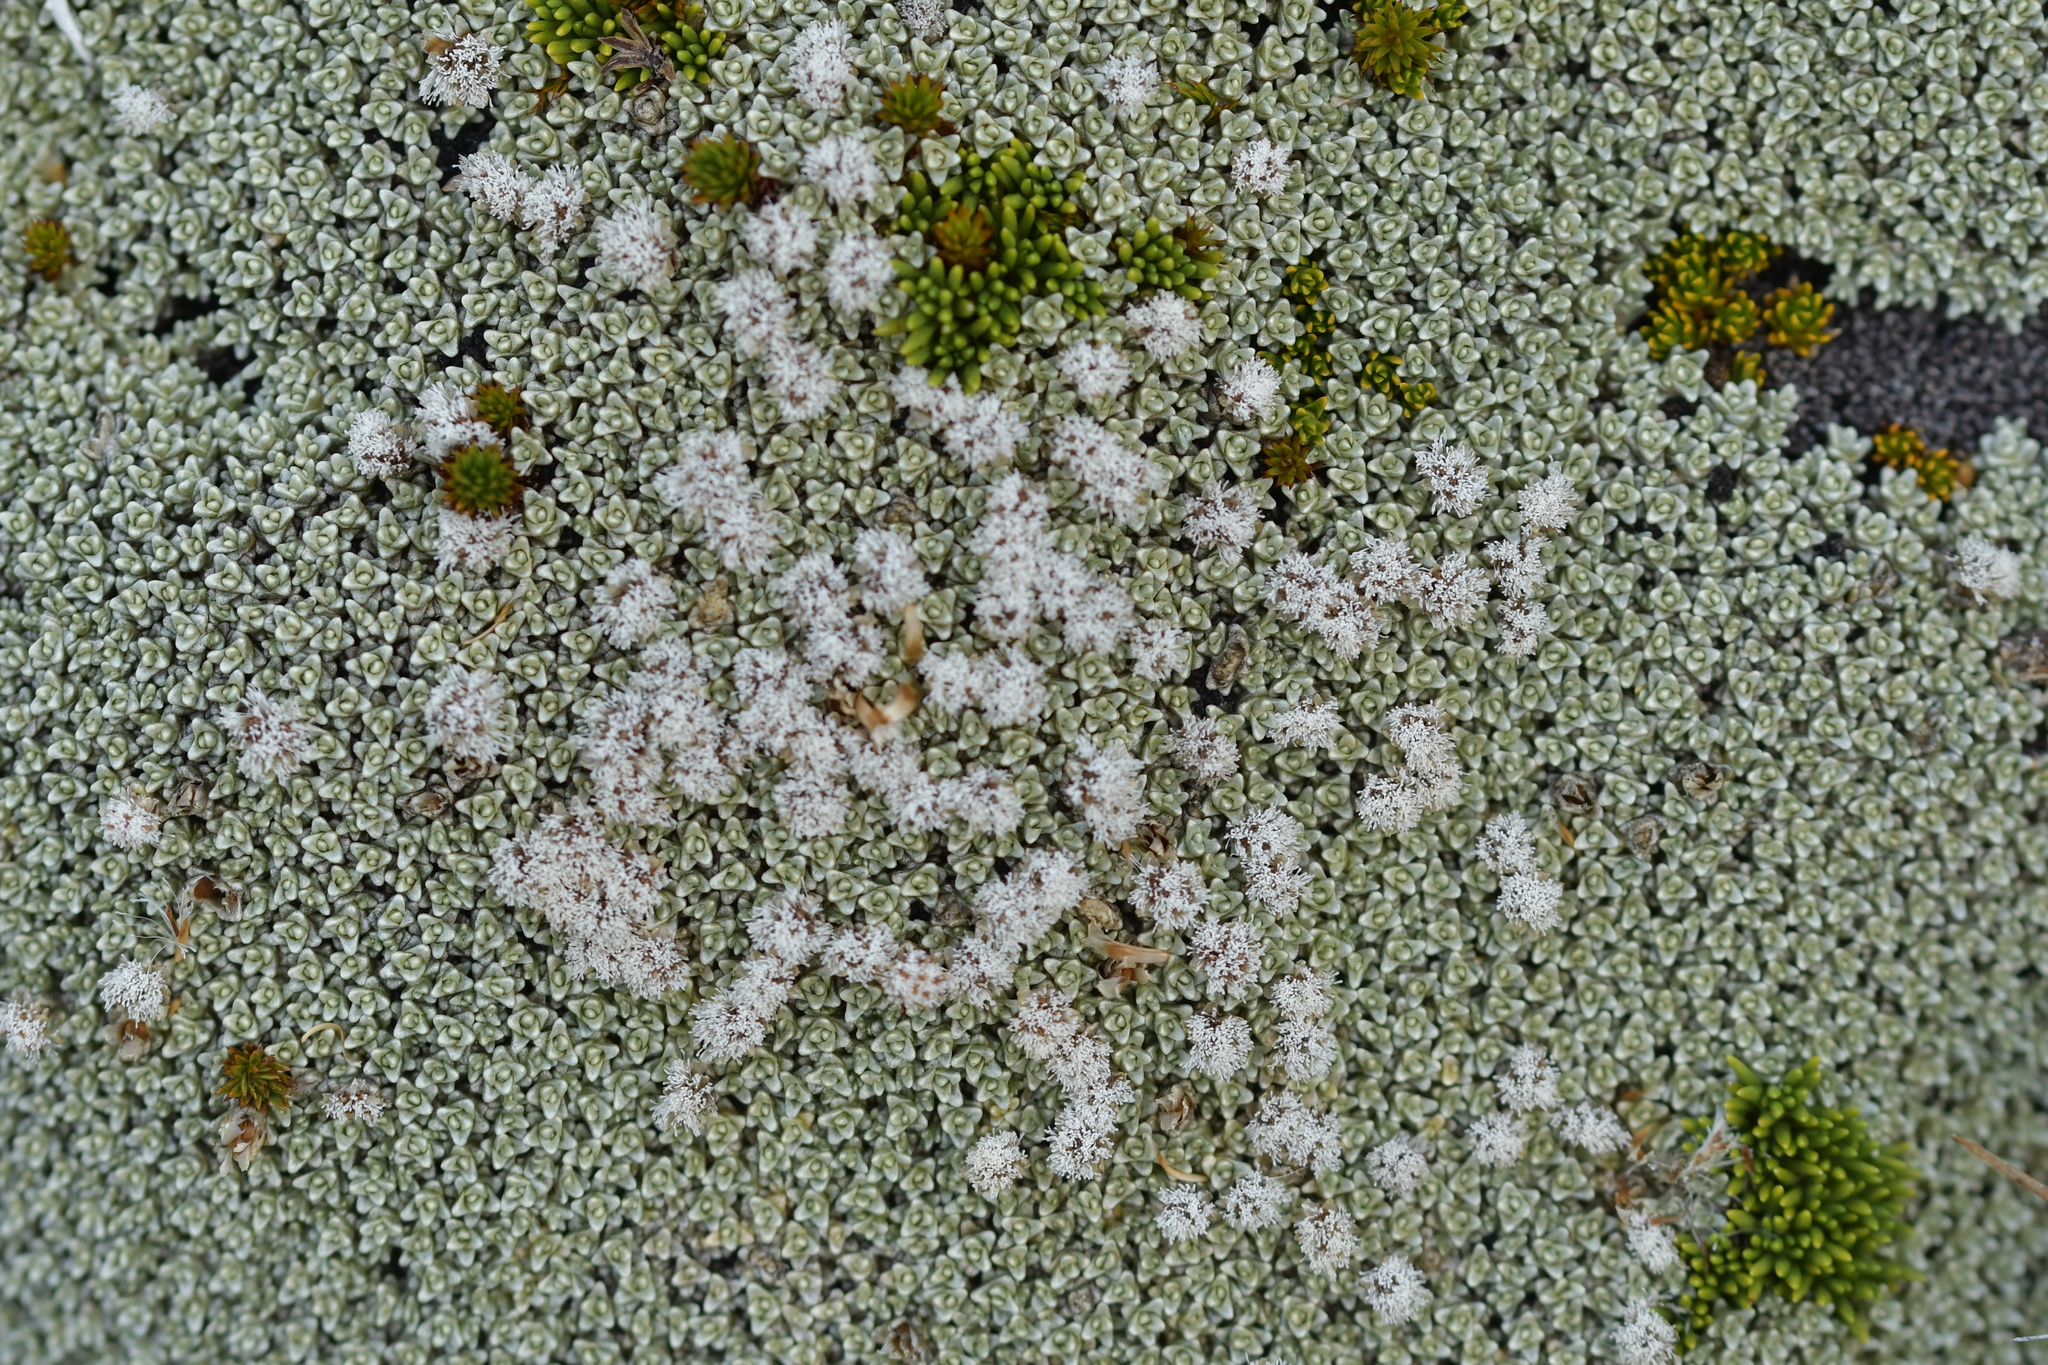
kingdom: Plantae
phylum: Tracheophyta
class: Magnoliopsida
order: Asterales
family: Asteraceae
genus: Raoulia
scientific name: Raoulia hectorii
